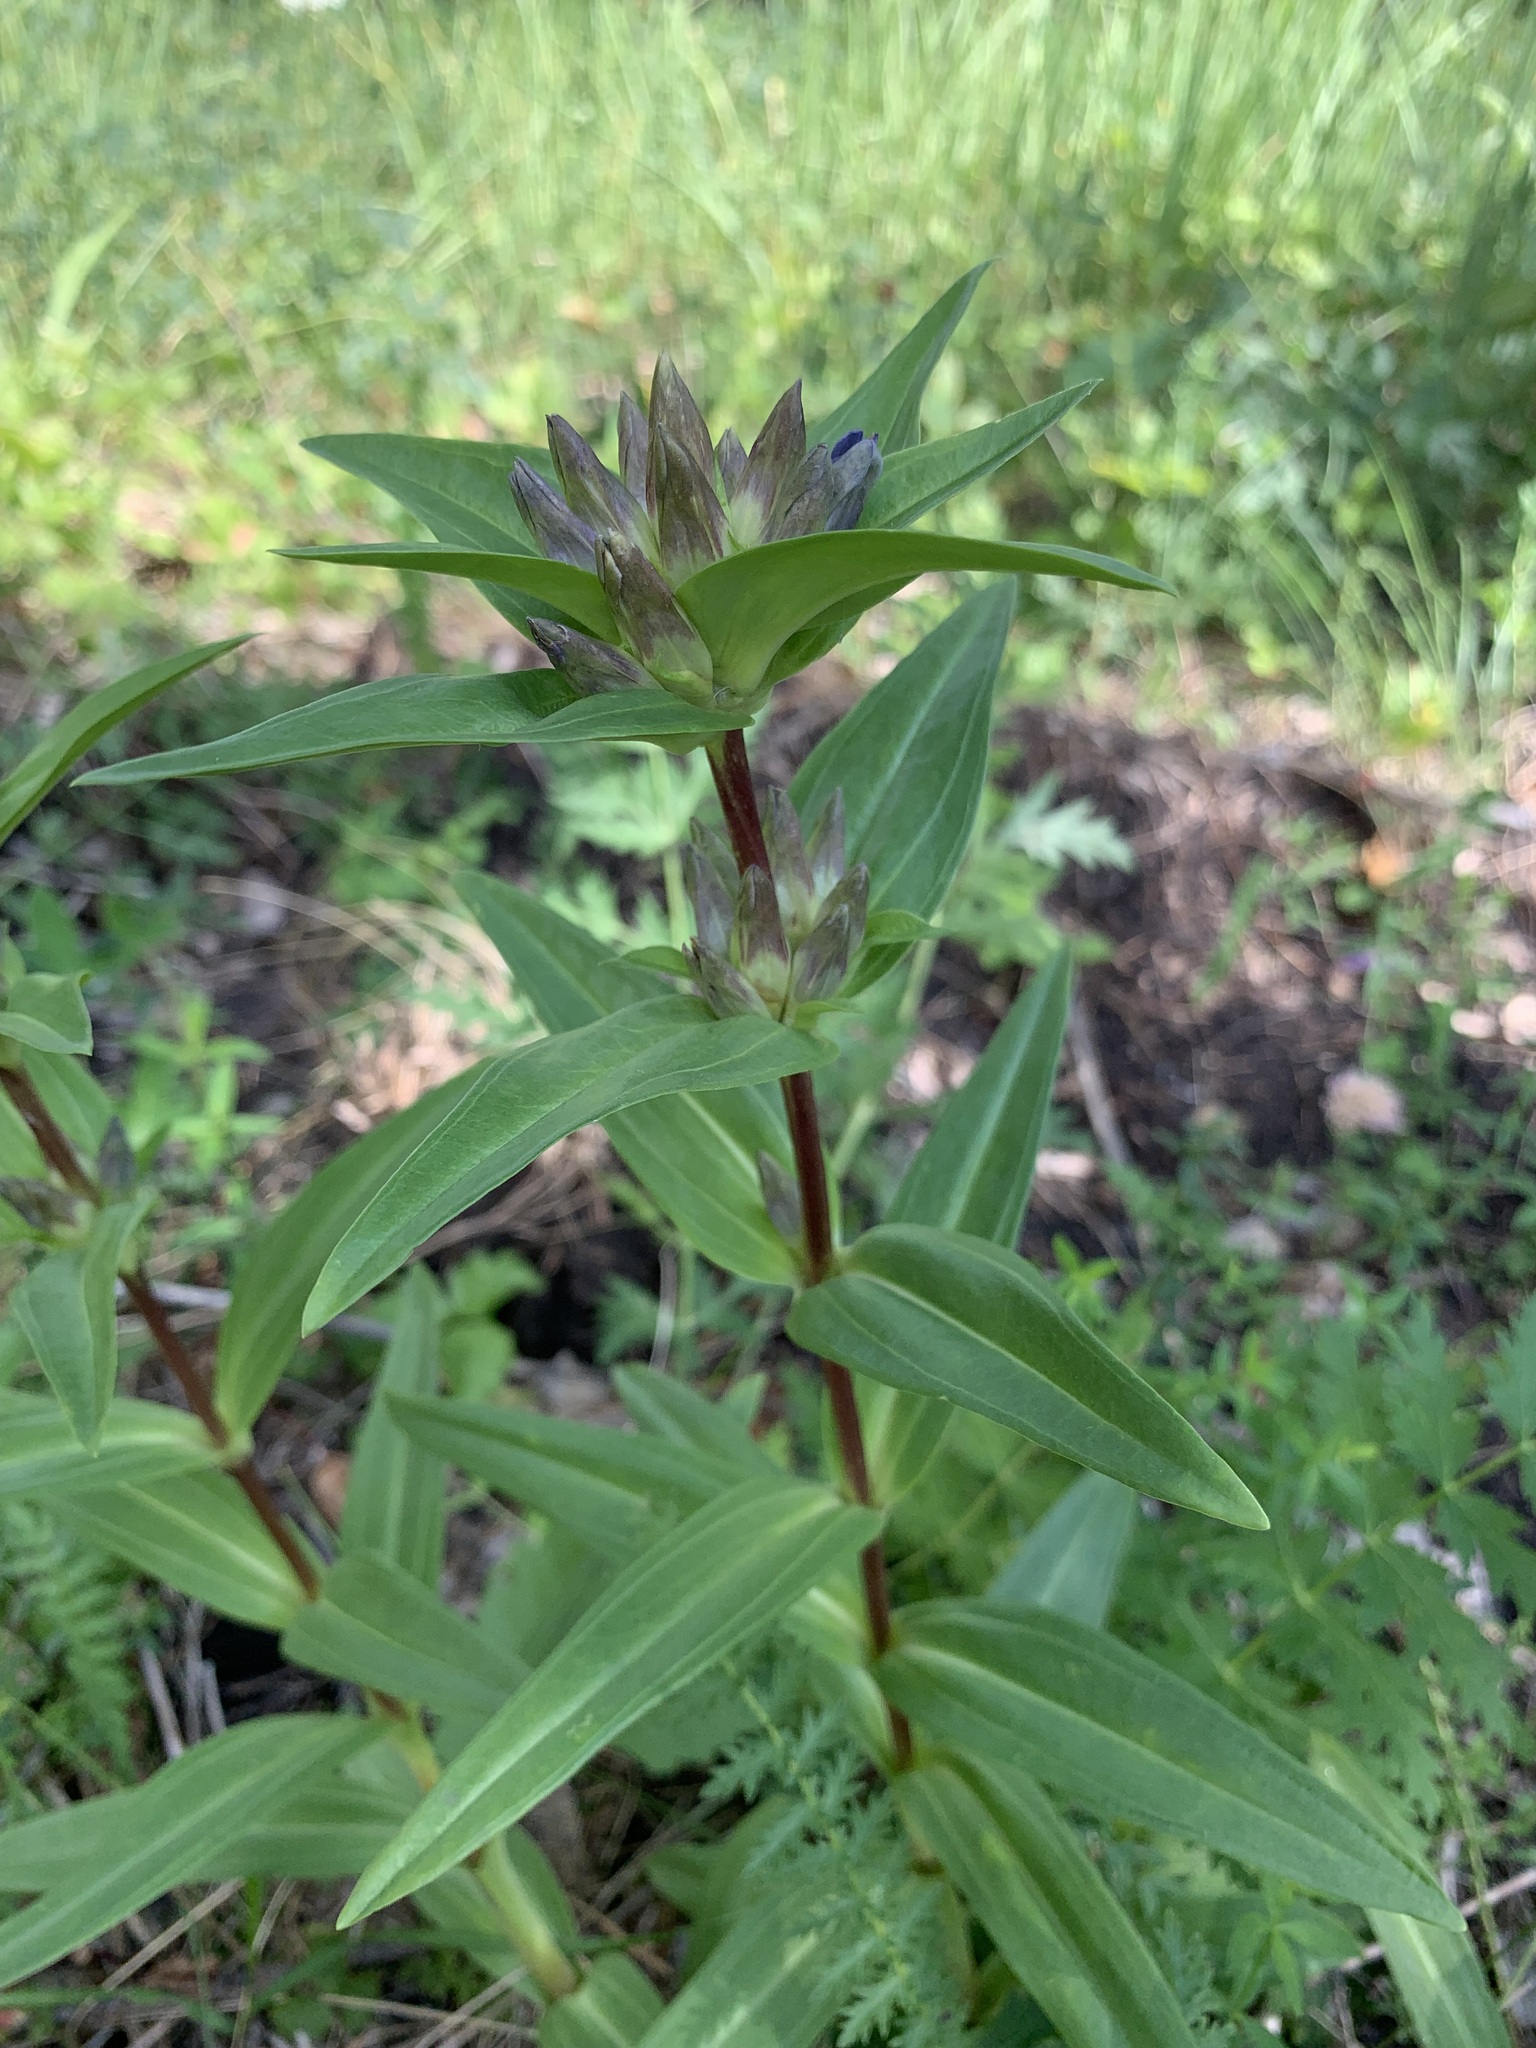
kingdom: Plantae
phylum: Tracheophyta
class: Magnoliopsida
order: Gentianales
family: Gentianaceae
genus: Gentiana
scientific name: Gentiana cruciata
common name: Cross gentian
